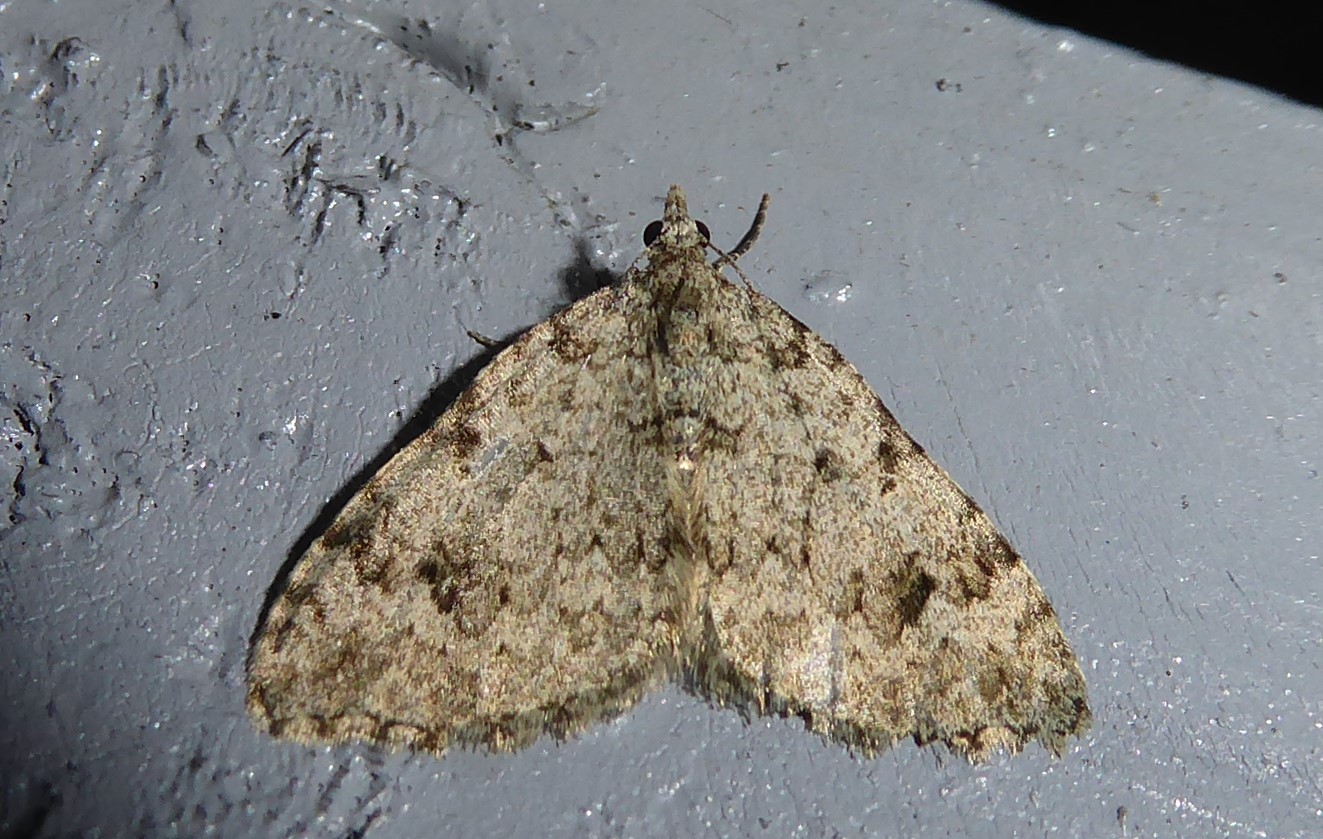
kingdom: Animalia
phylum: Arthropoda
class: Insecta
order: Lepidoptera
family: Geometridae
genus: Helastia
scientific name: Helastia cinerearia
